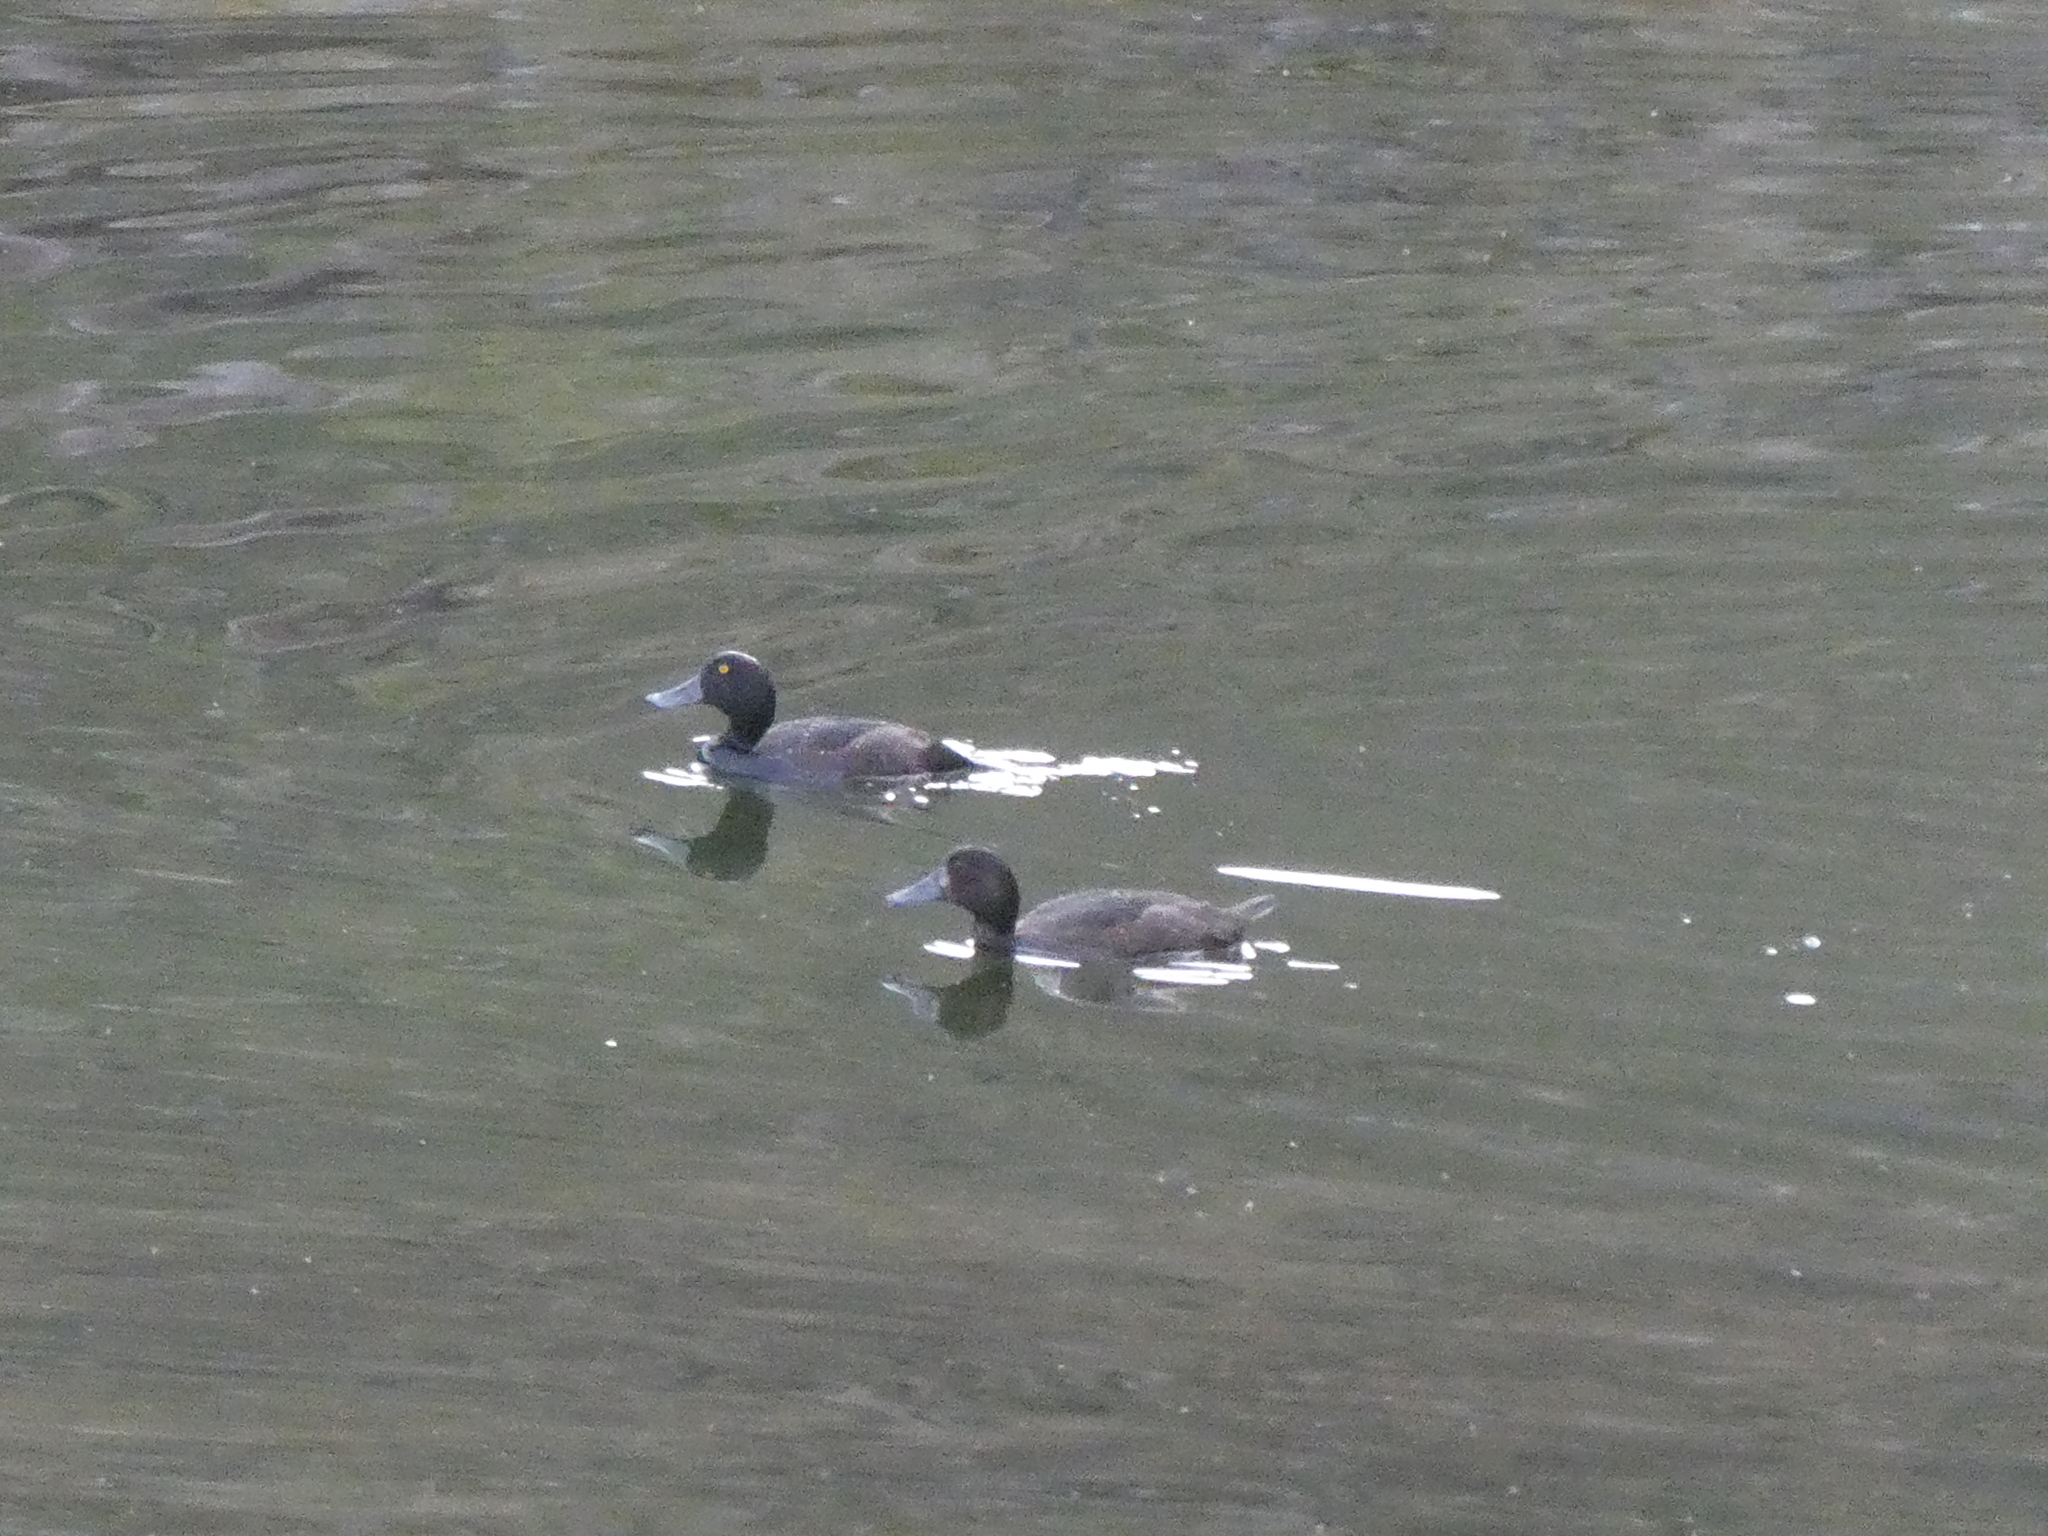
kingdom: Animalia
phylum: Chordata
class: Aves
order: Anseriformes
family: Anatidae
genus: Aythya
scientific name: Aythya novaeseelandiae
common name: New zealand scaup
